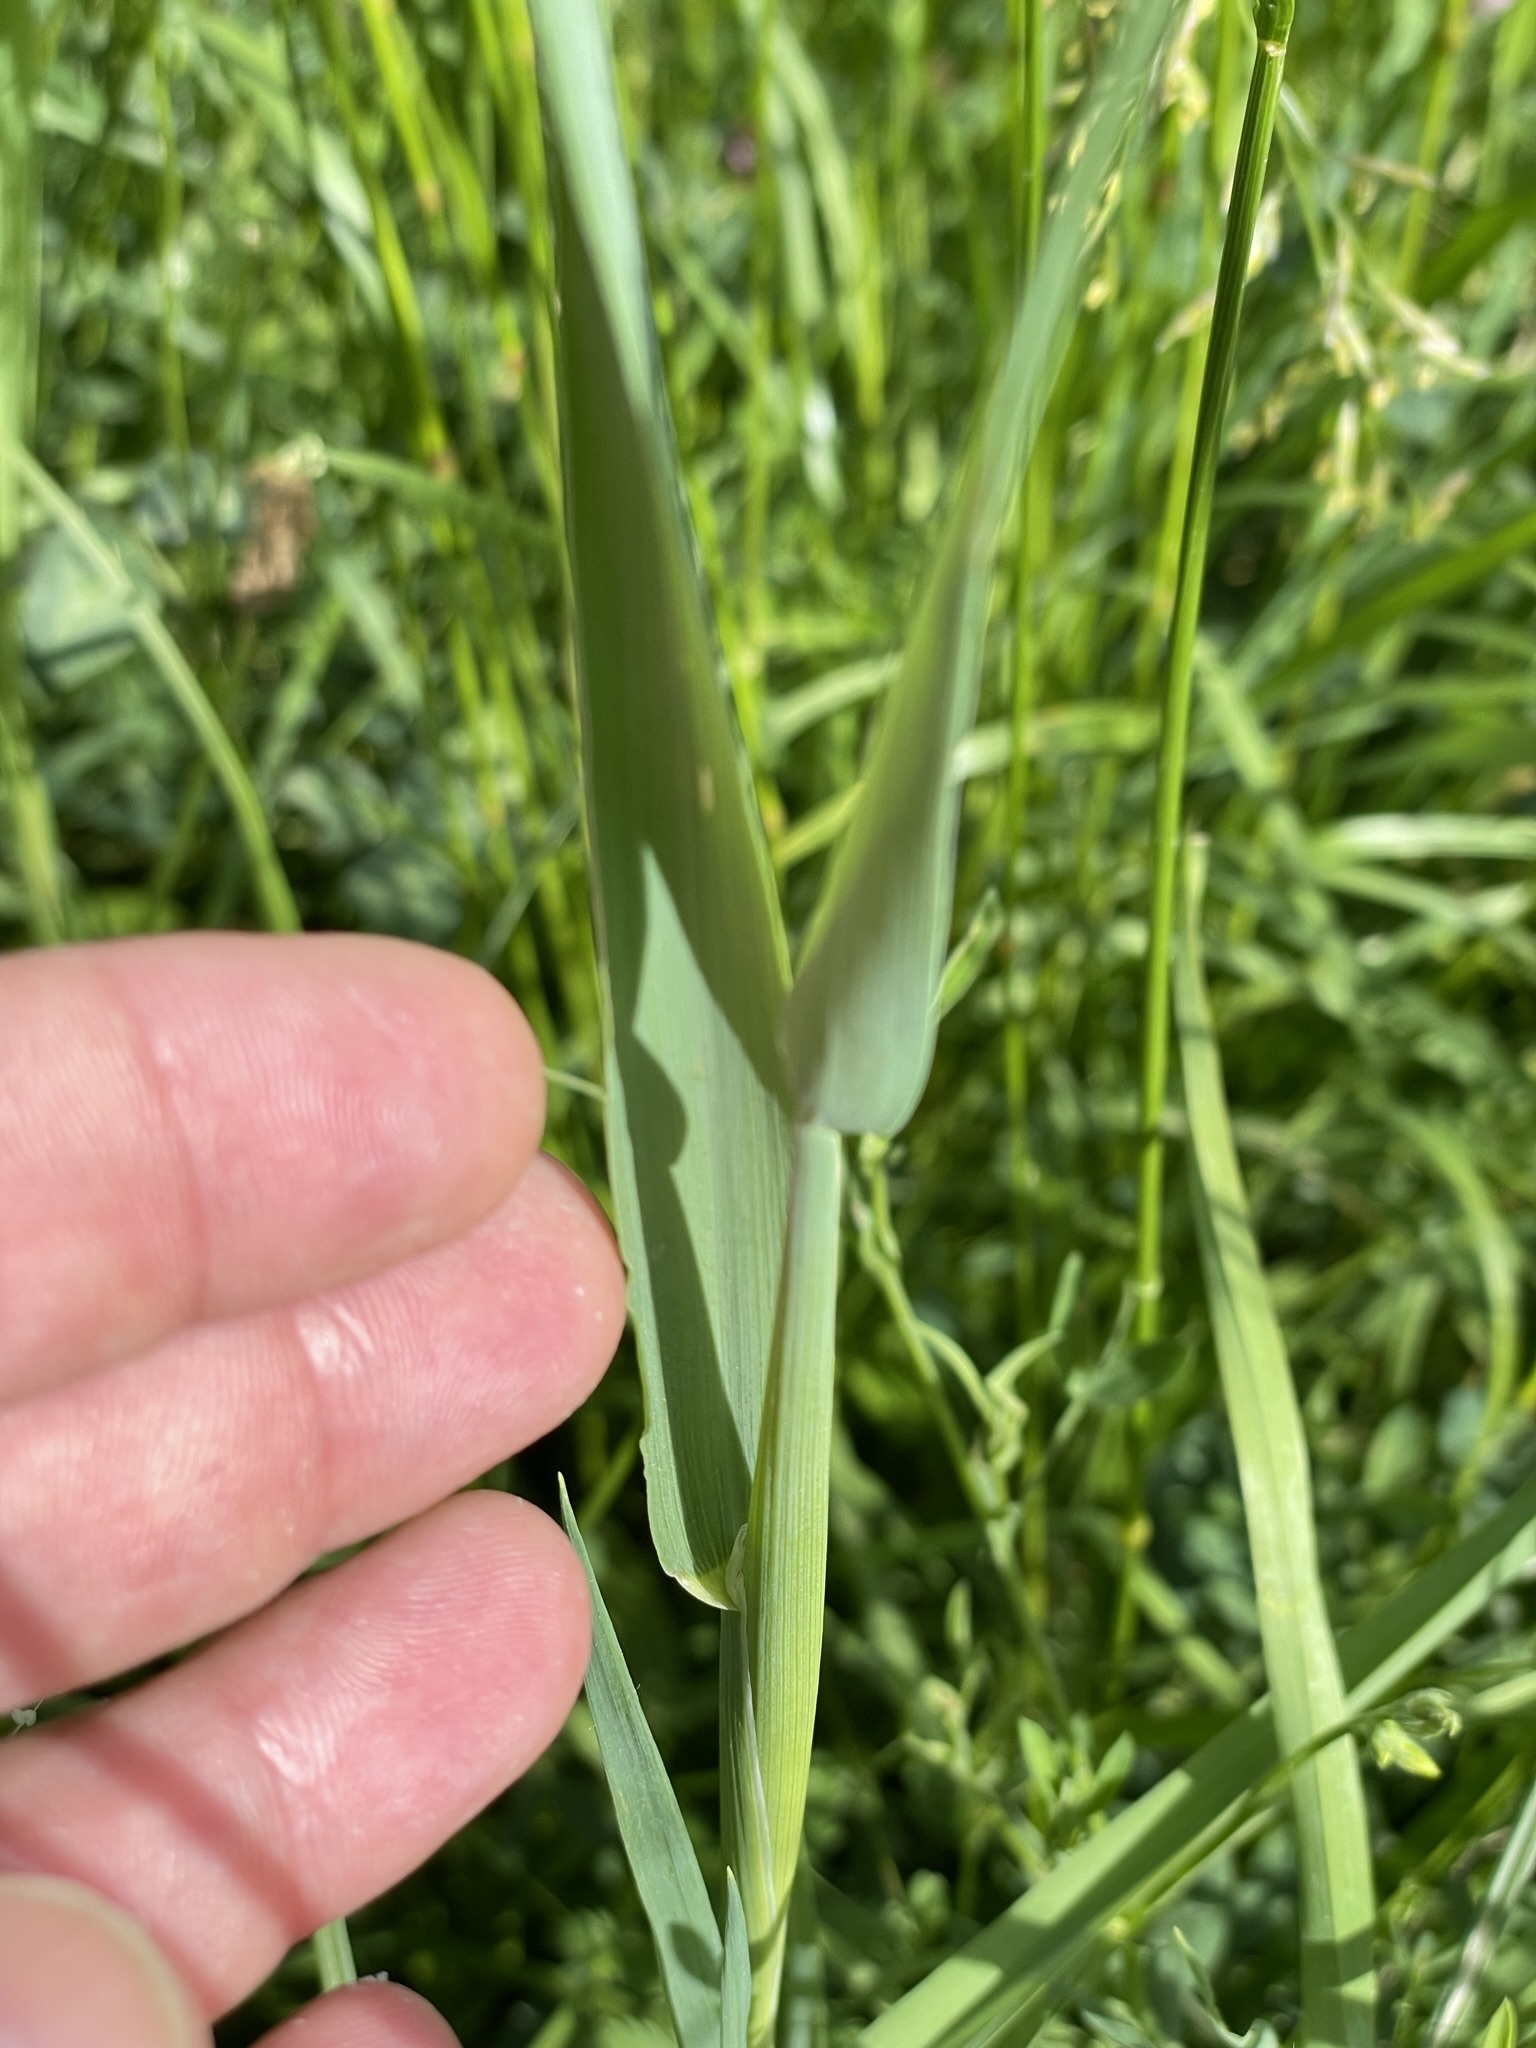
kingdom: Plantae
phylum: Tracheophyta
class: Liliopsida
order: Poales
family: Poaceae
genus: Dactylis
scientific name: Dactylis glomerata
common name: Orchardgrass
